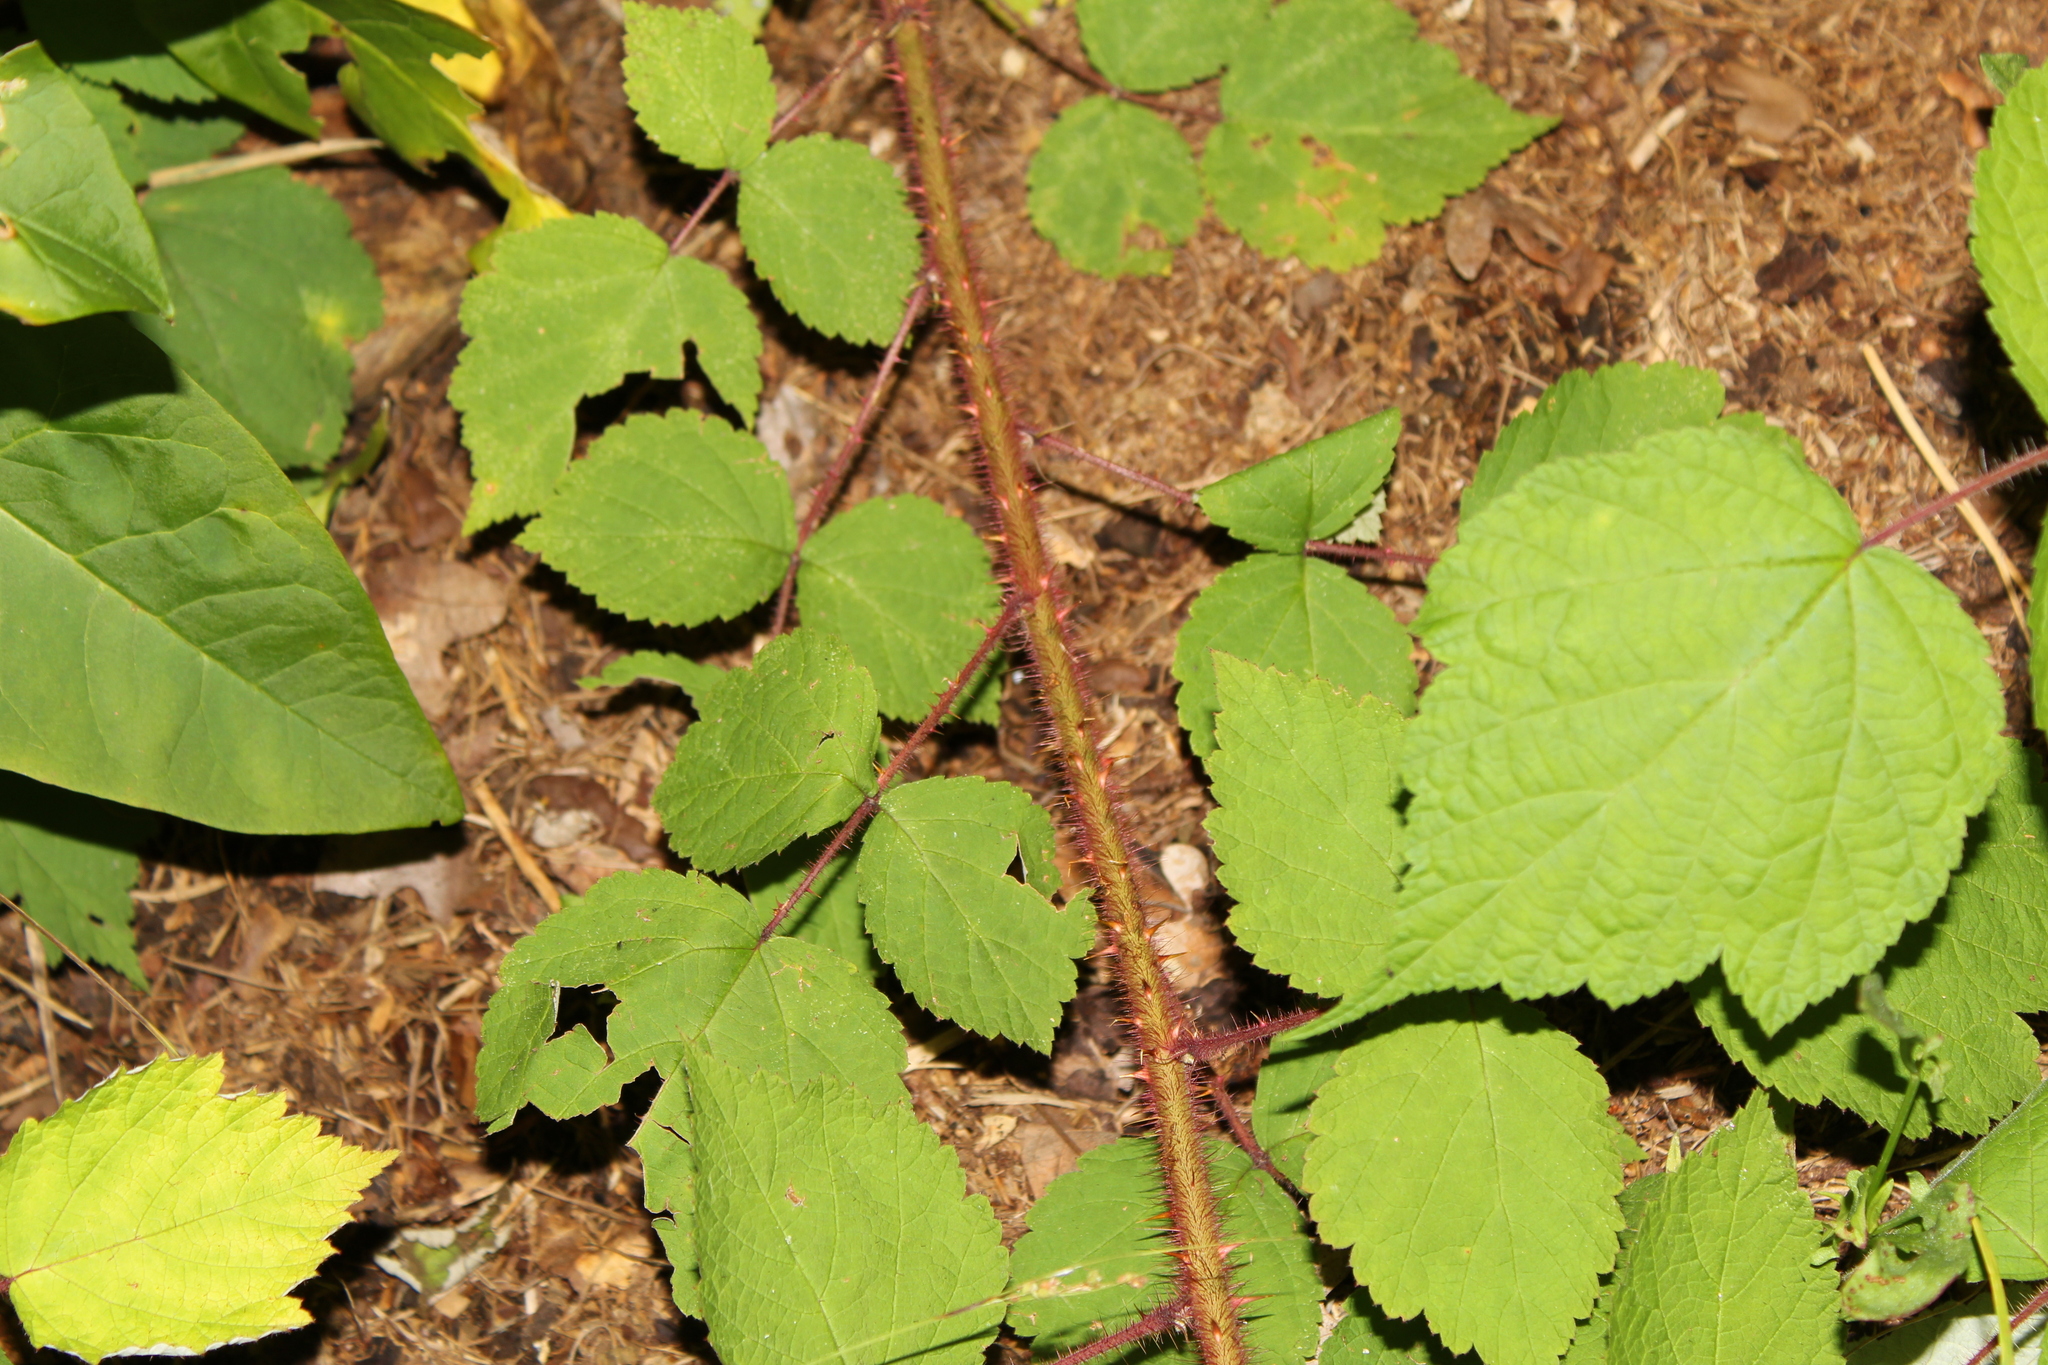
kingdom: Plantae
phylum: Tracheophyta
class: Magnoliopsida
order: Rosales
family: Rosaceae
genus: Rubus
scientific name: Rubus phoenicolasius
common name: Japanese wineberry
